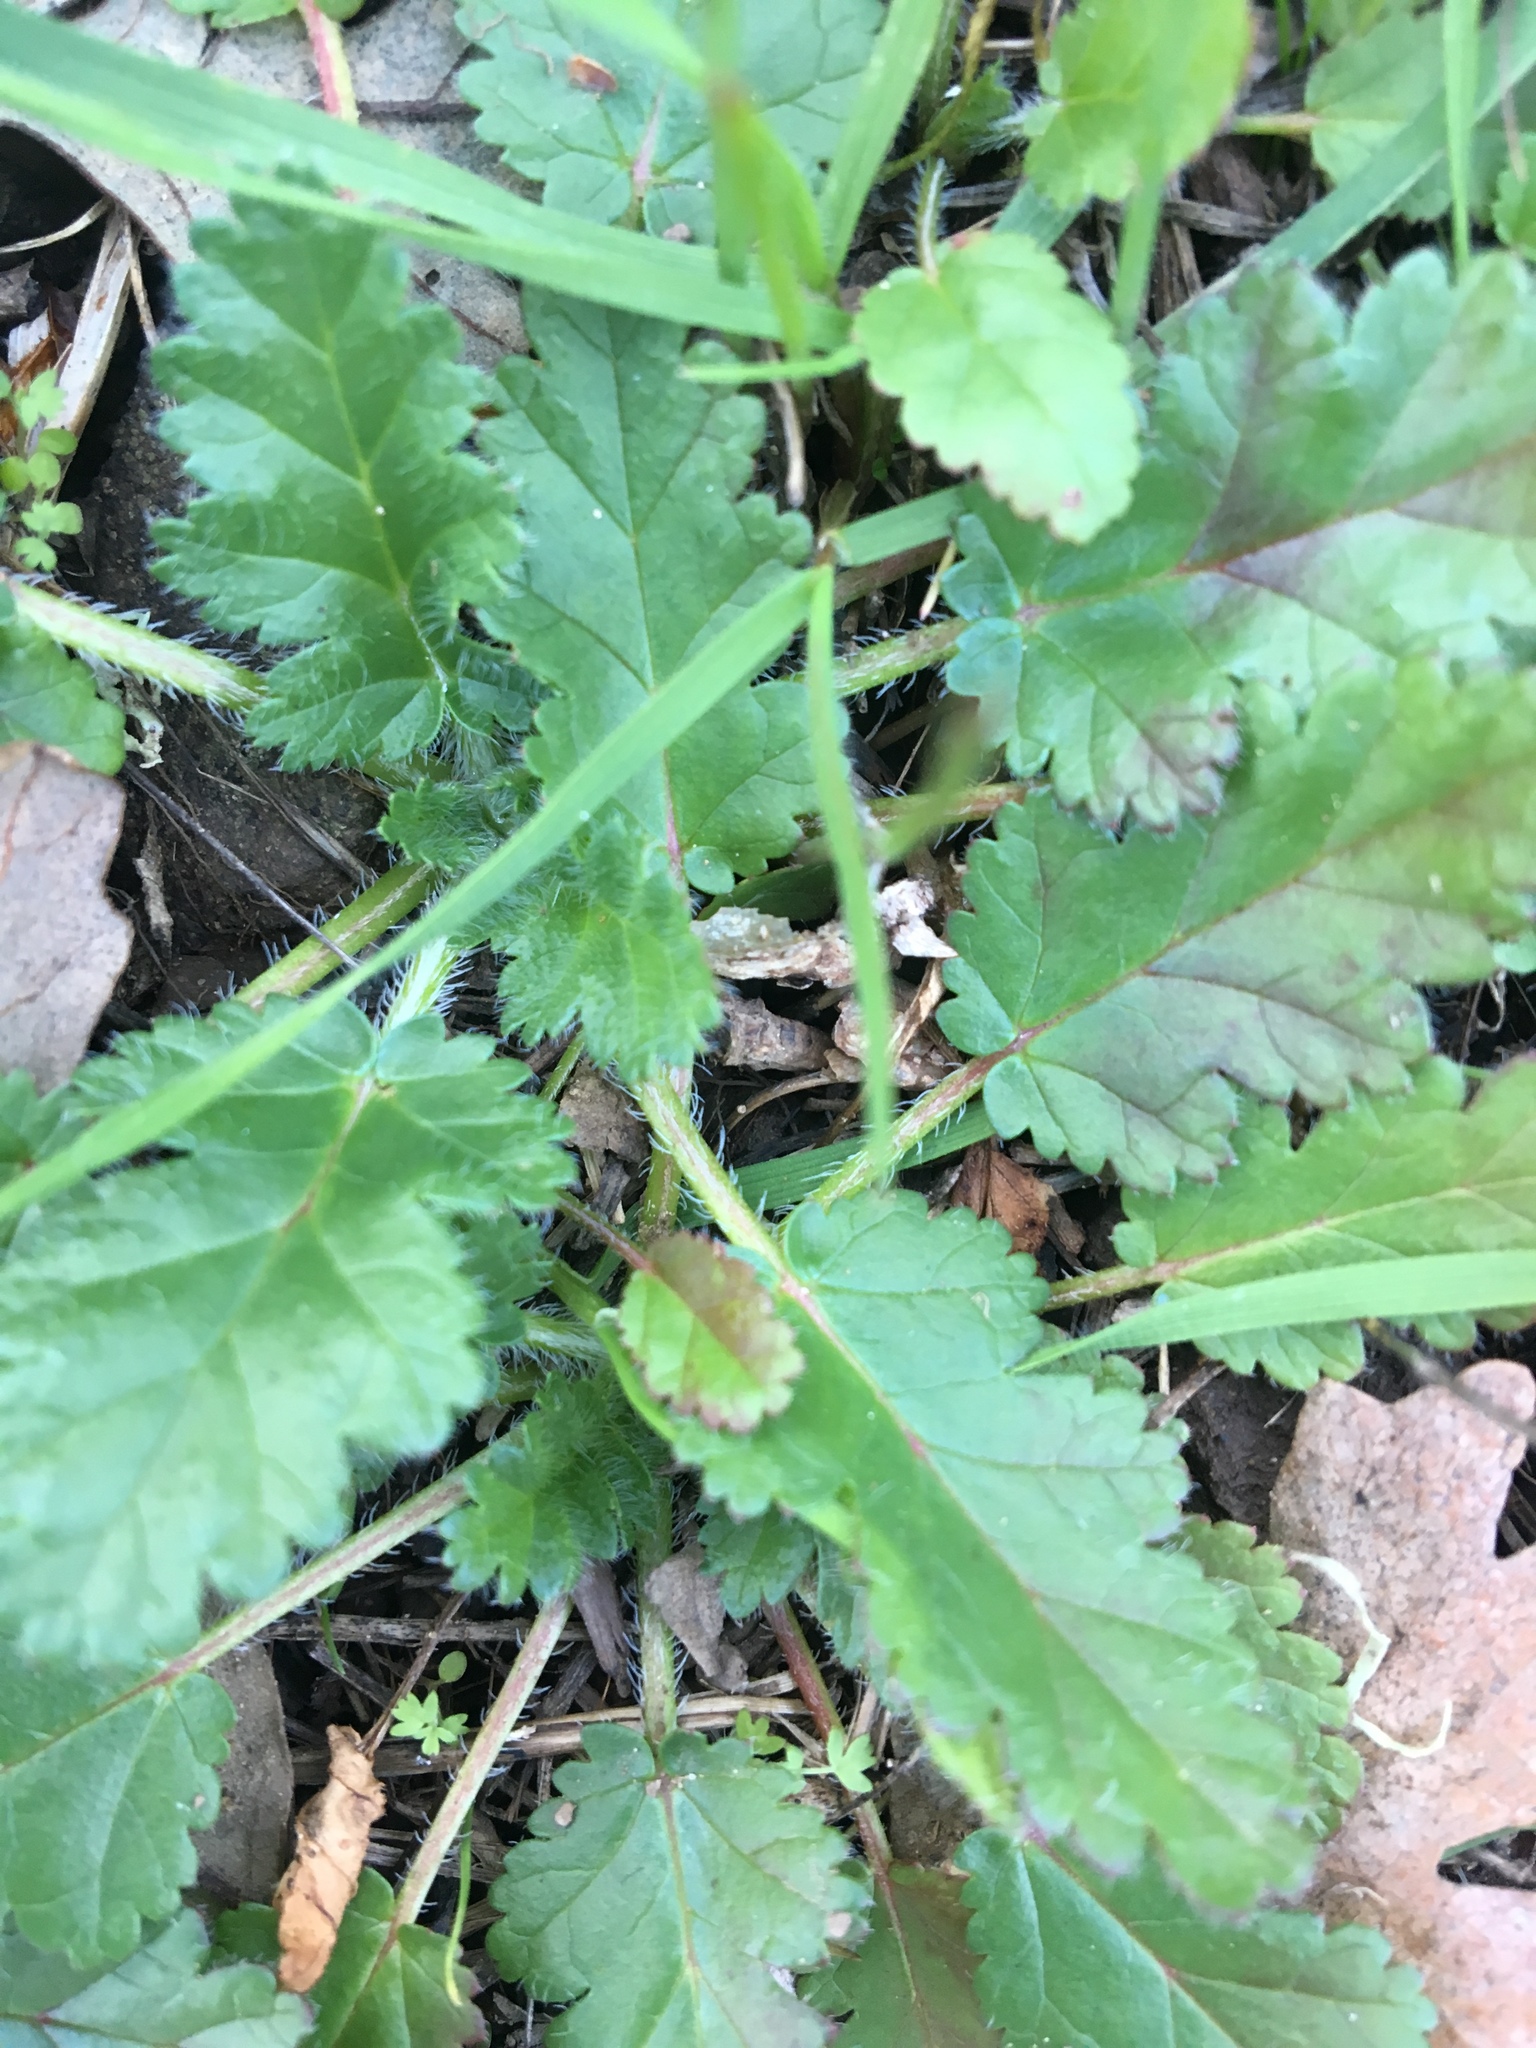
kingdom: Plantae
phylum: Tracheophyta
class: Magnoliopsida
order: Geraniales
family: Geraniaceae
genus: Erodium
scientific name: Erodium
